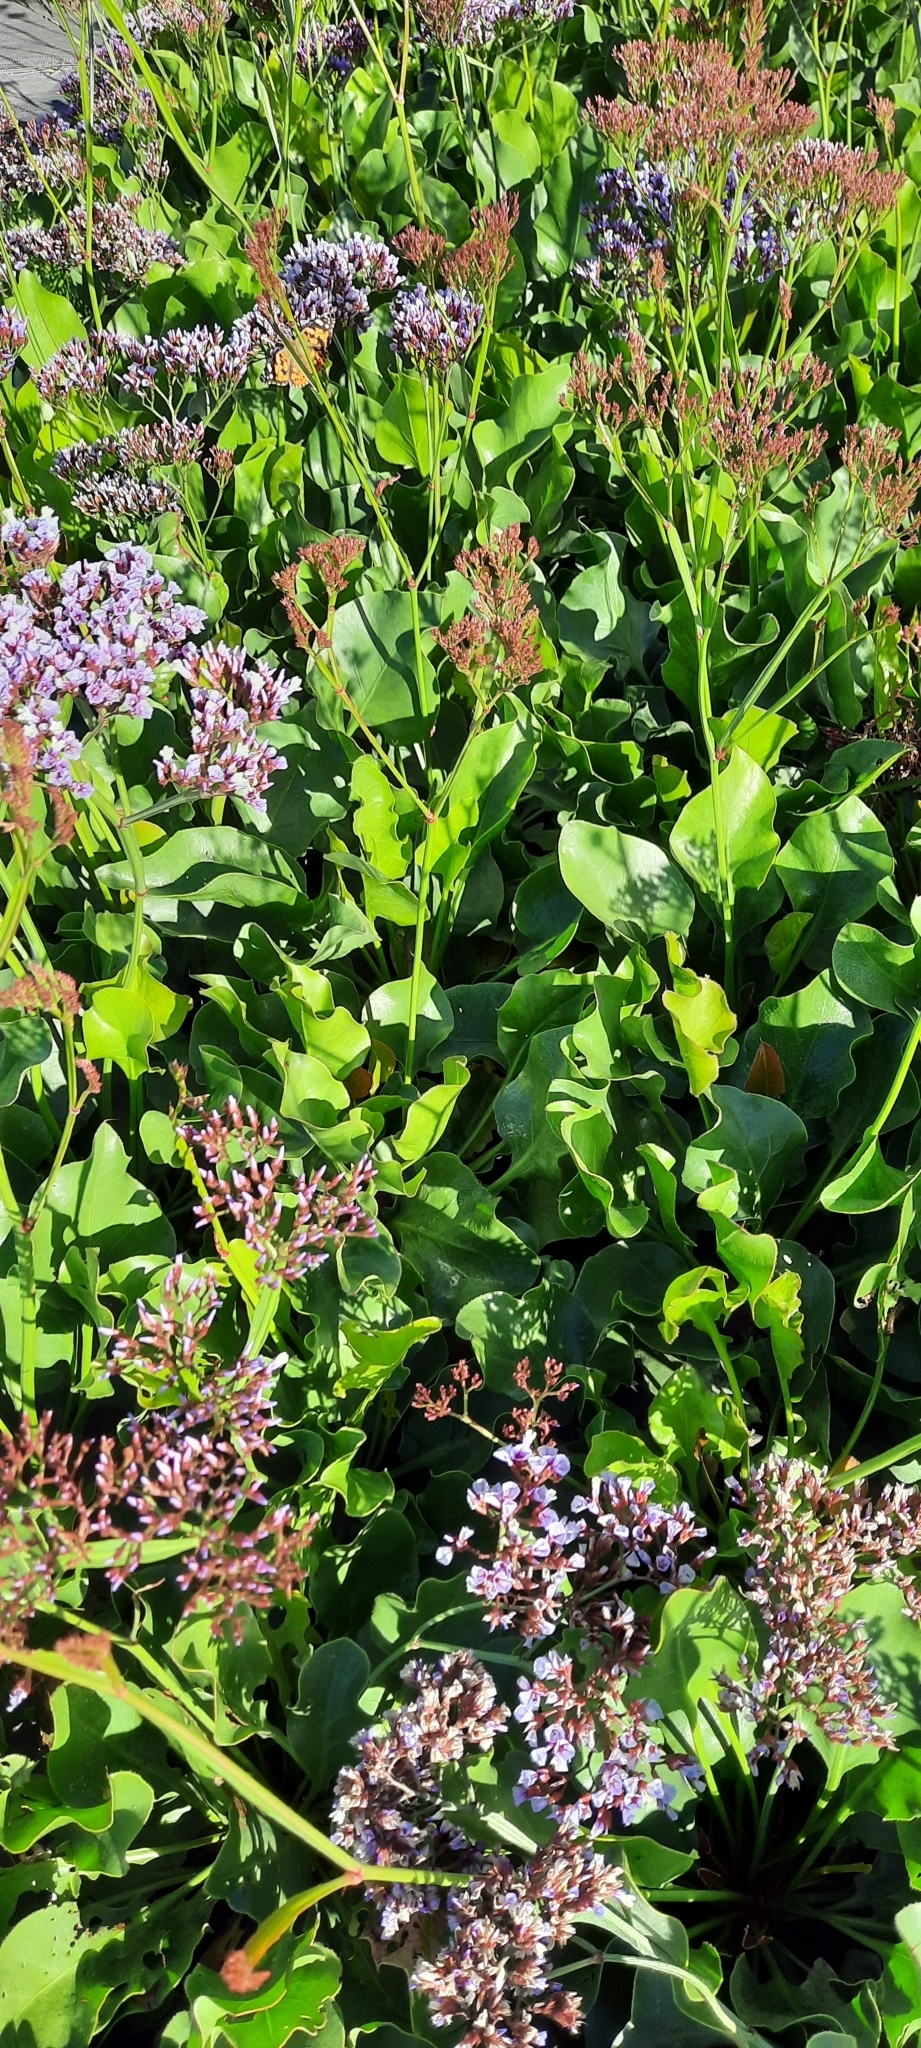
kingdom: Plantae
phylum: Tracheophyta
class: Magnoliopsida
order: Caryophyllales
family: Plumbaginaceae
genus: Limonium
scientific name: Limonium perezii
